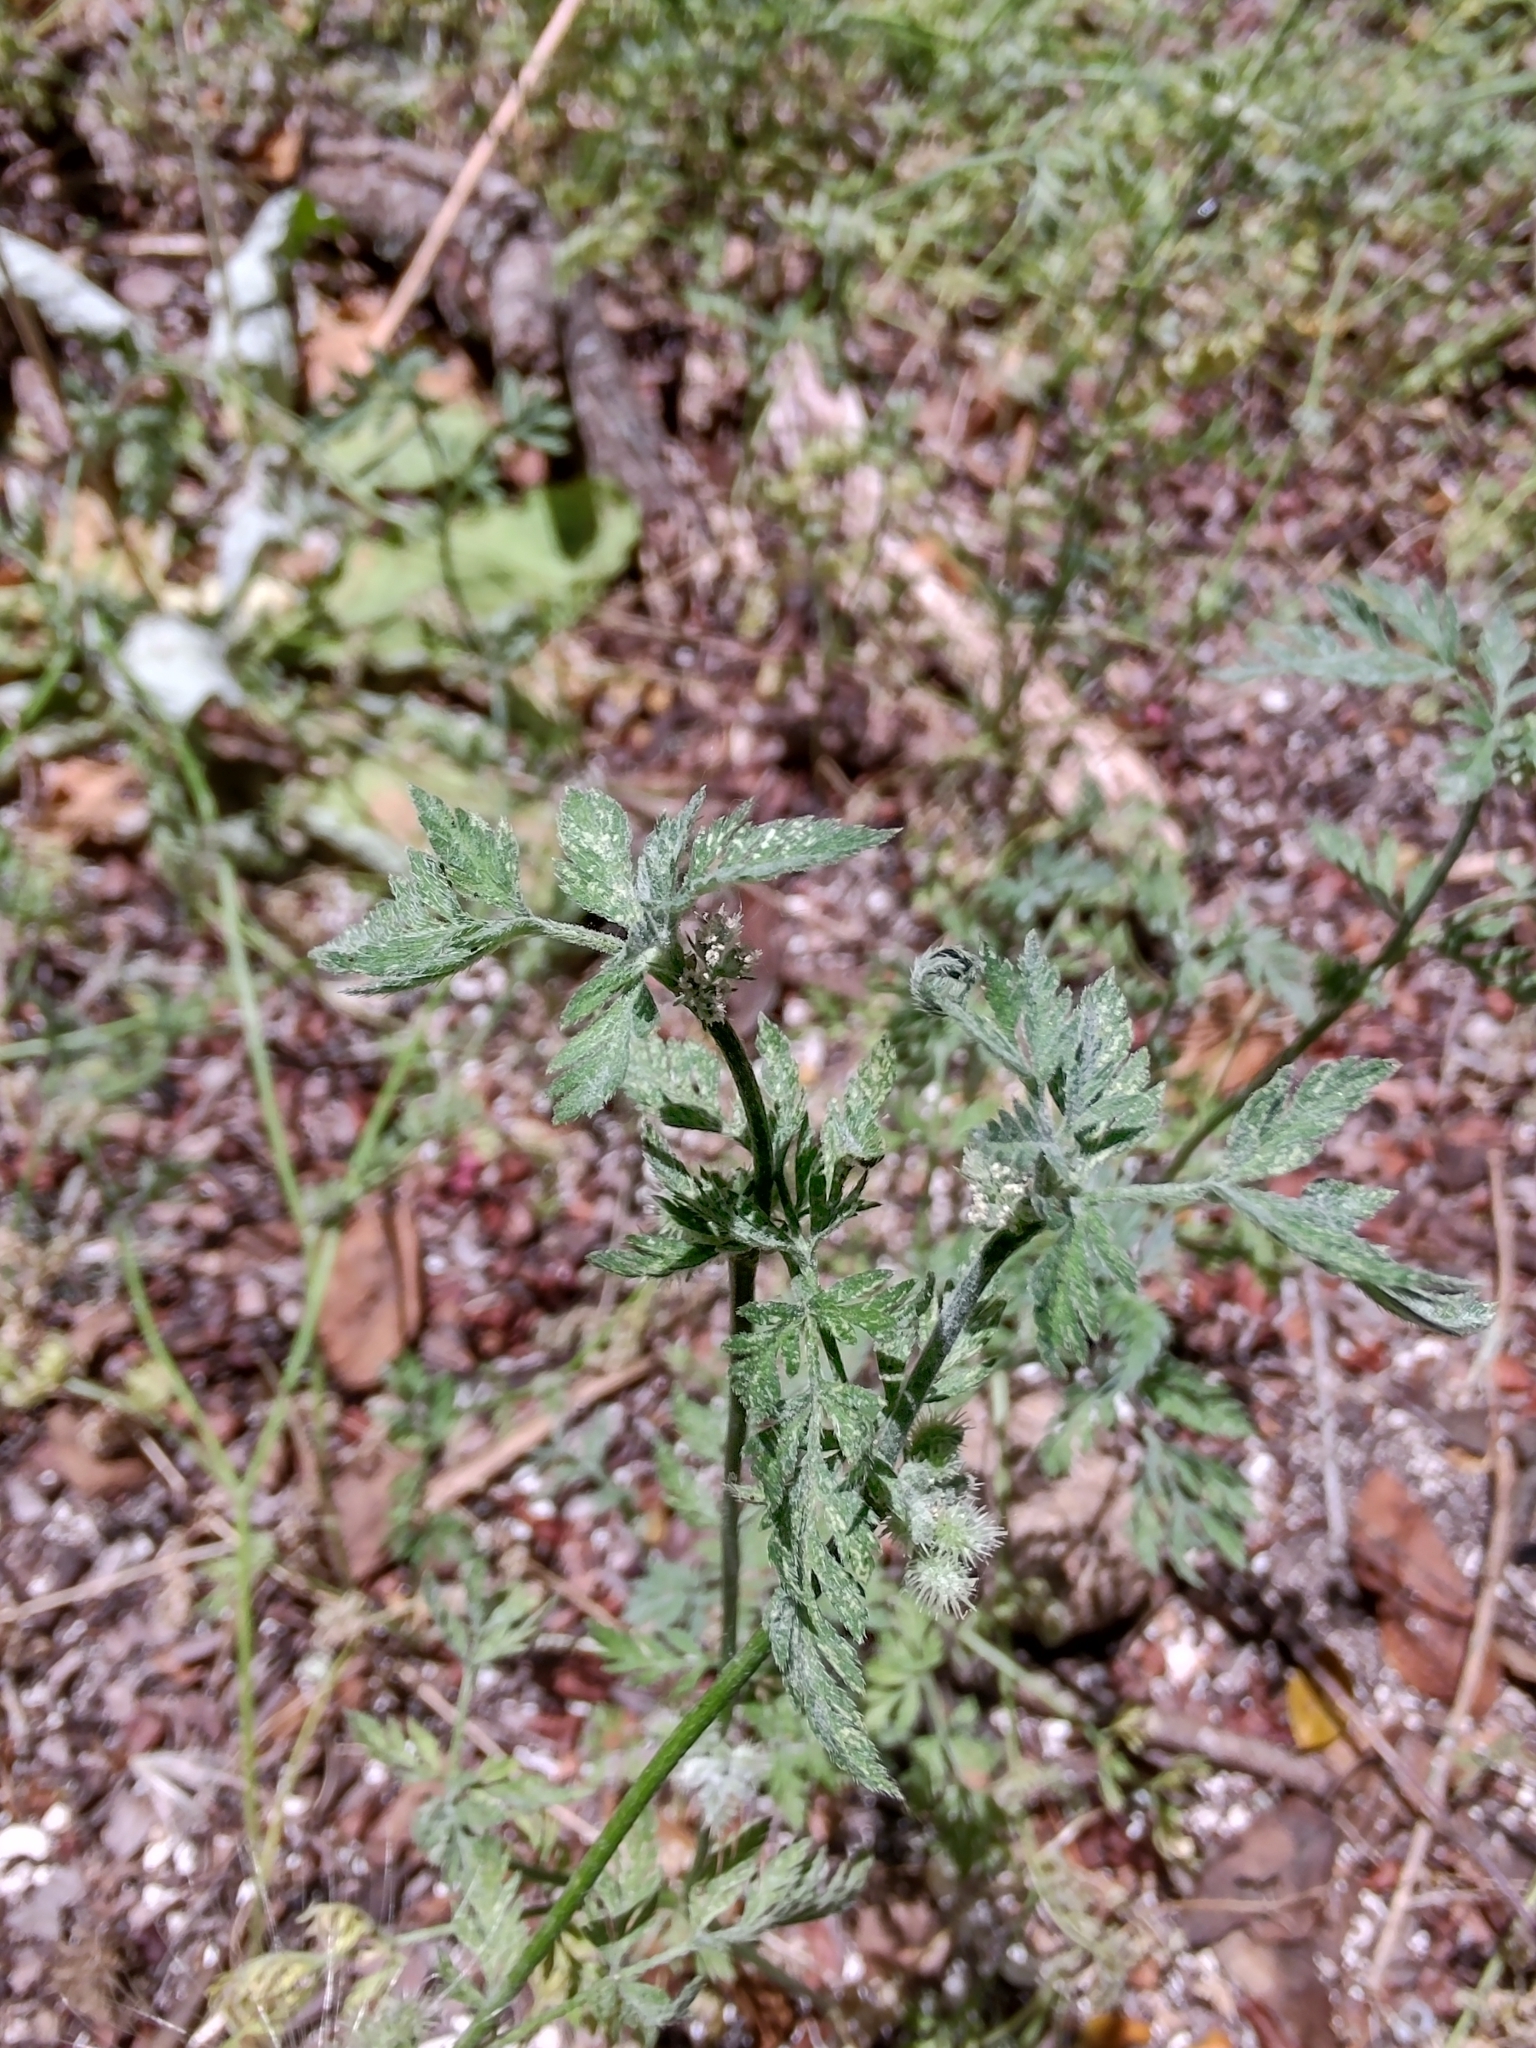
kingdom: Plantae
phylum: Tracheophyta
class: Magnoliopsida
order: Apiales
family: Apiaceae
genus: Torilis
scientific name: Torilis nodosa
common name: Knotted hedge-parsley
